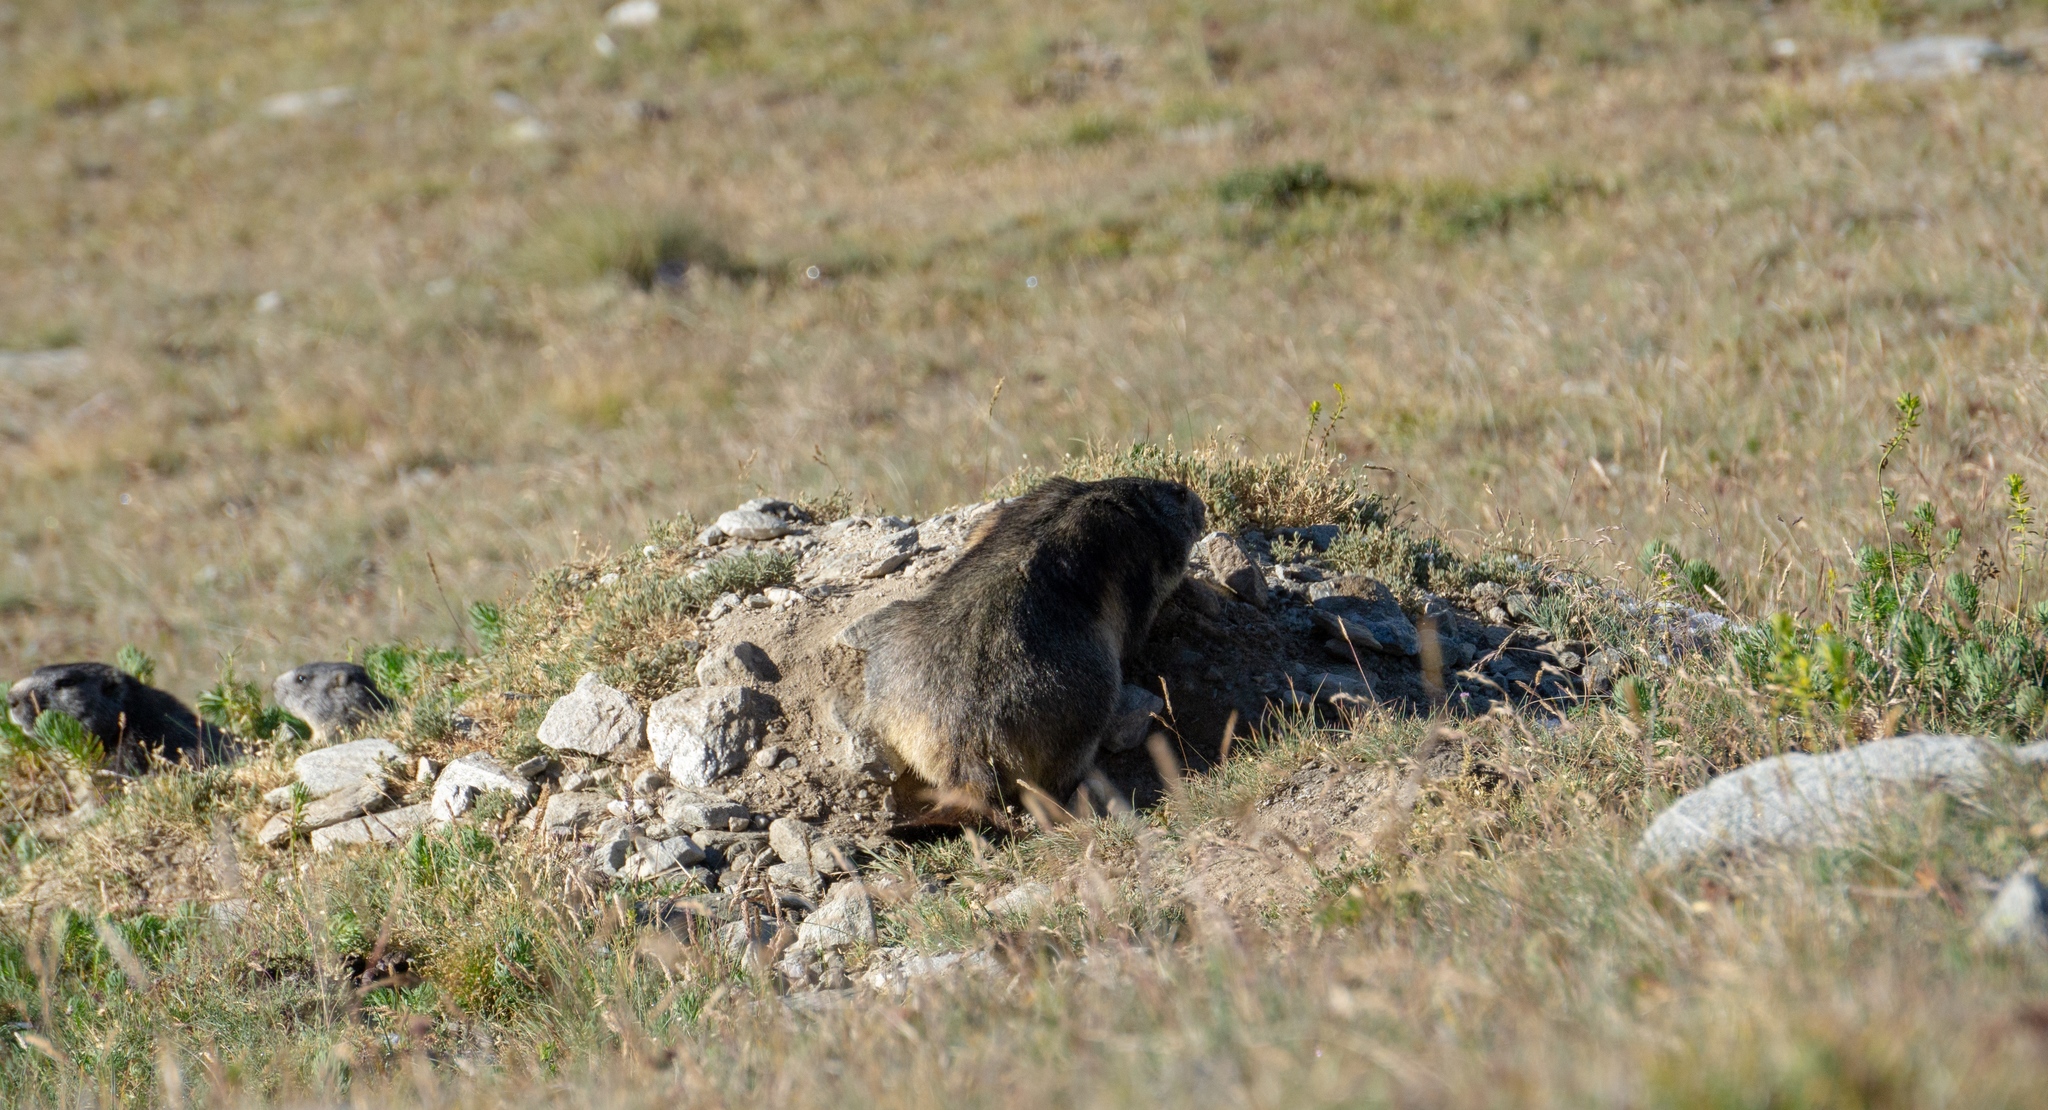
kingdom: Animalia
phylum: Chordata
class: Mammalia
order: Rodentia
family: Sciuridae
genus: Marmota
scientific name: Marmota marmota
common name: Alpine marmot
